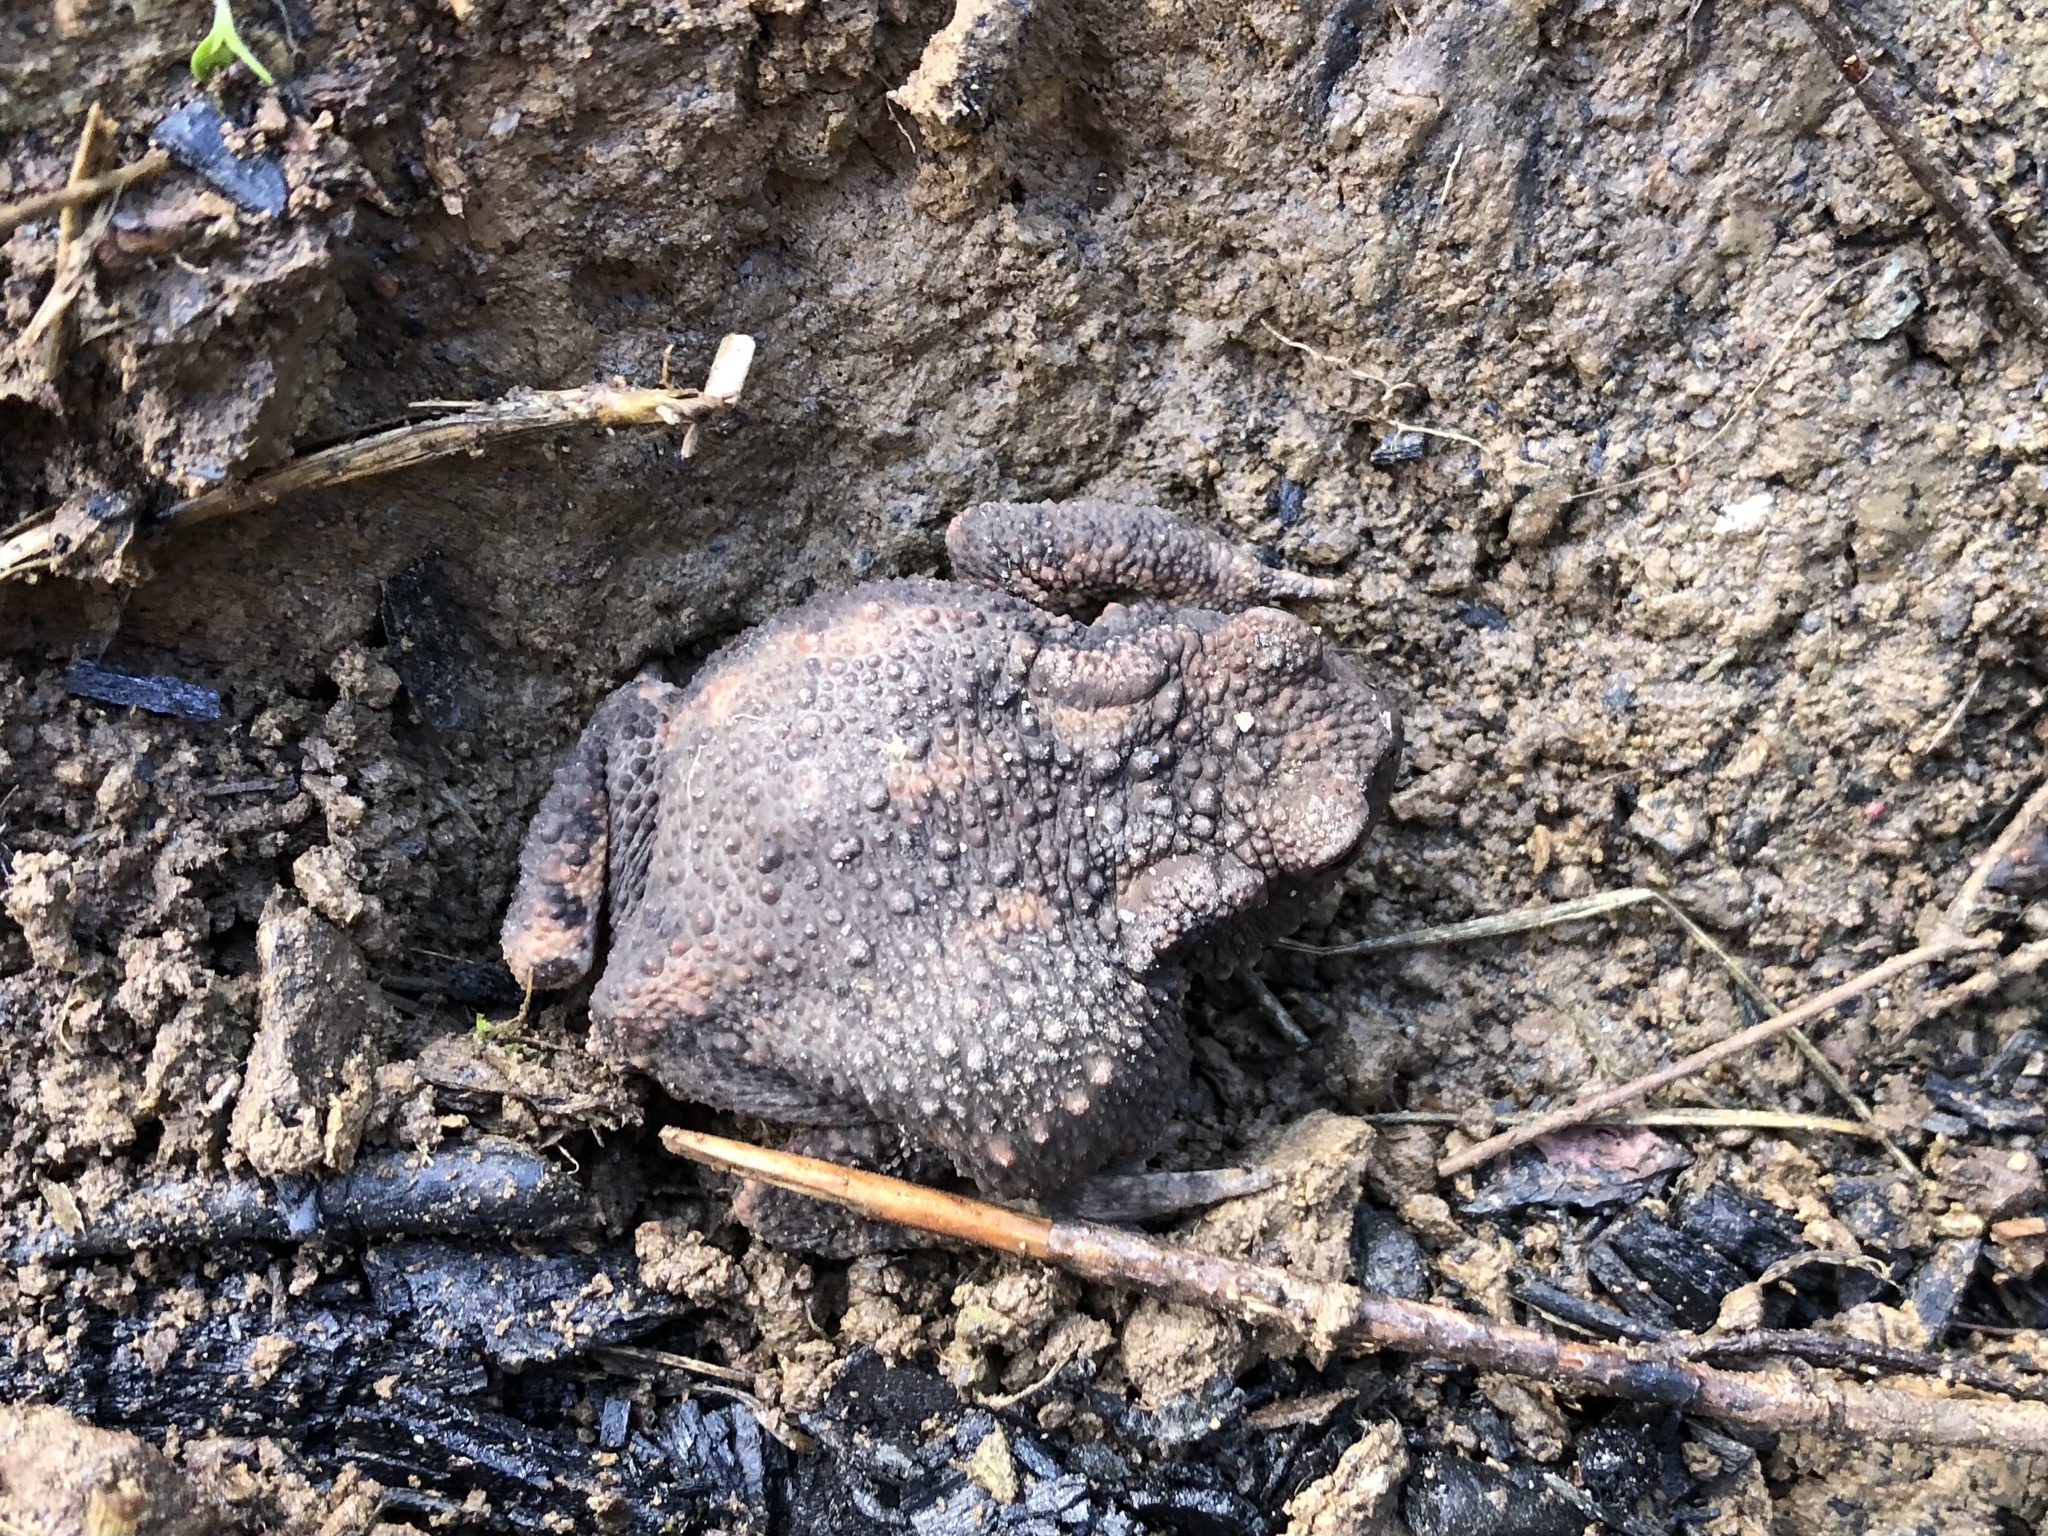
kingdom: Animalia
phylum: Chordata
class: Amphibia
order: Anura
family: Bufonidae
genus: Bufo
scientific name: Bufo bufo
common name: Common toad
